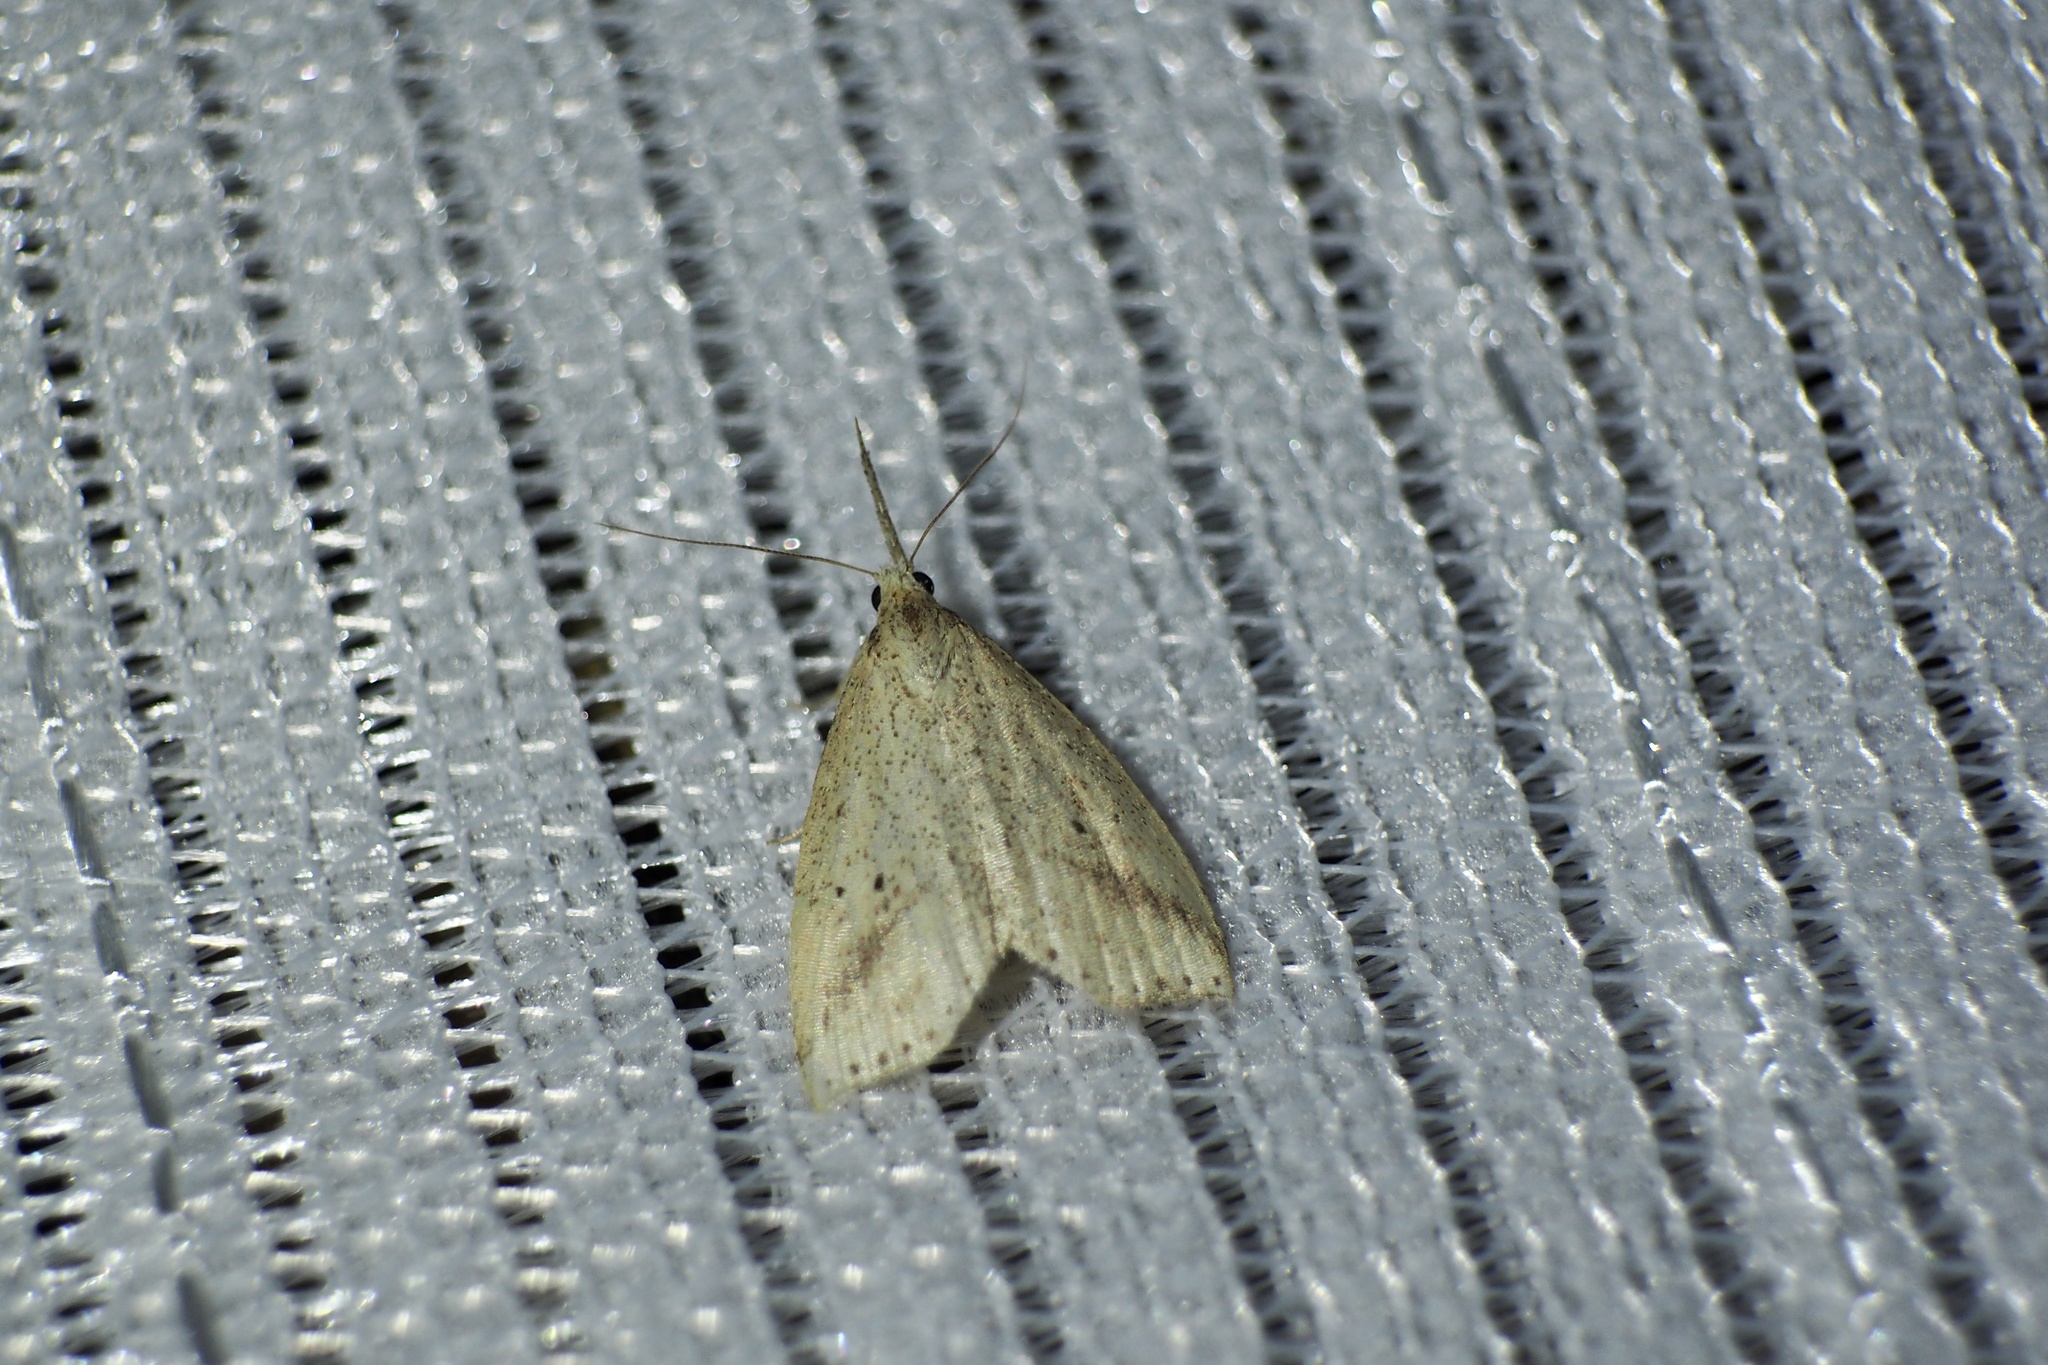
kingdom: Animalia
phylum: Arthropoda
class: Insecta
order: Lepidoptera
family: Erebidae
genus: Hypenomorpha
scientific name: Hypenomorpha
